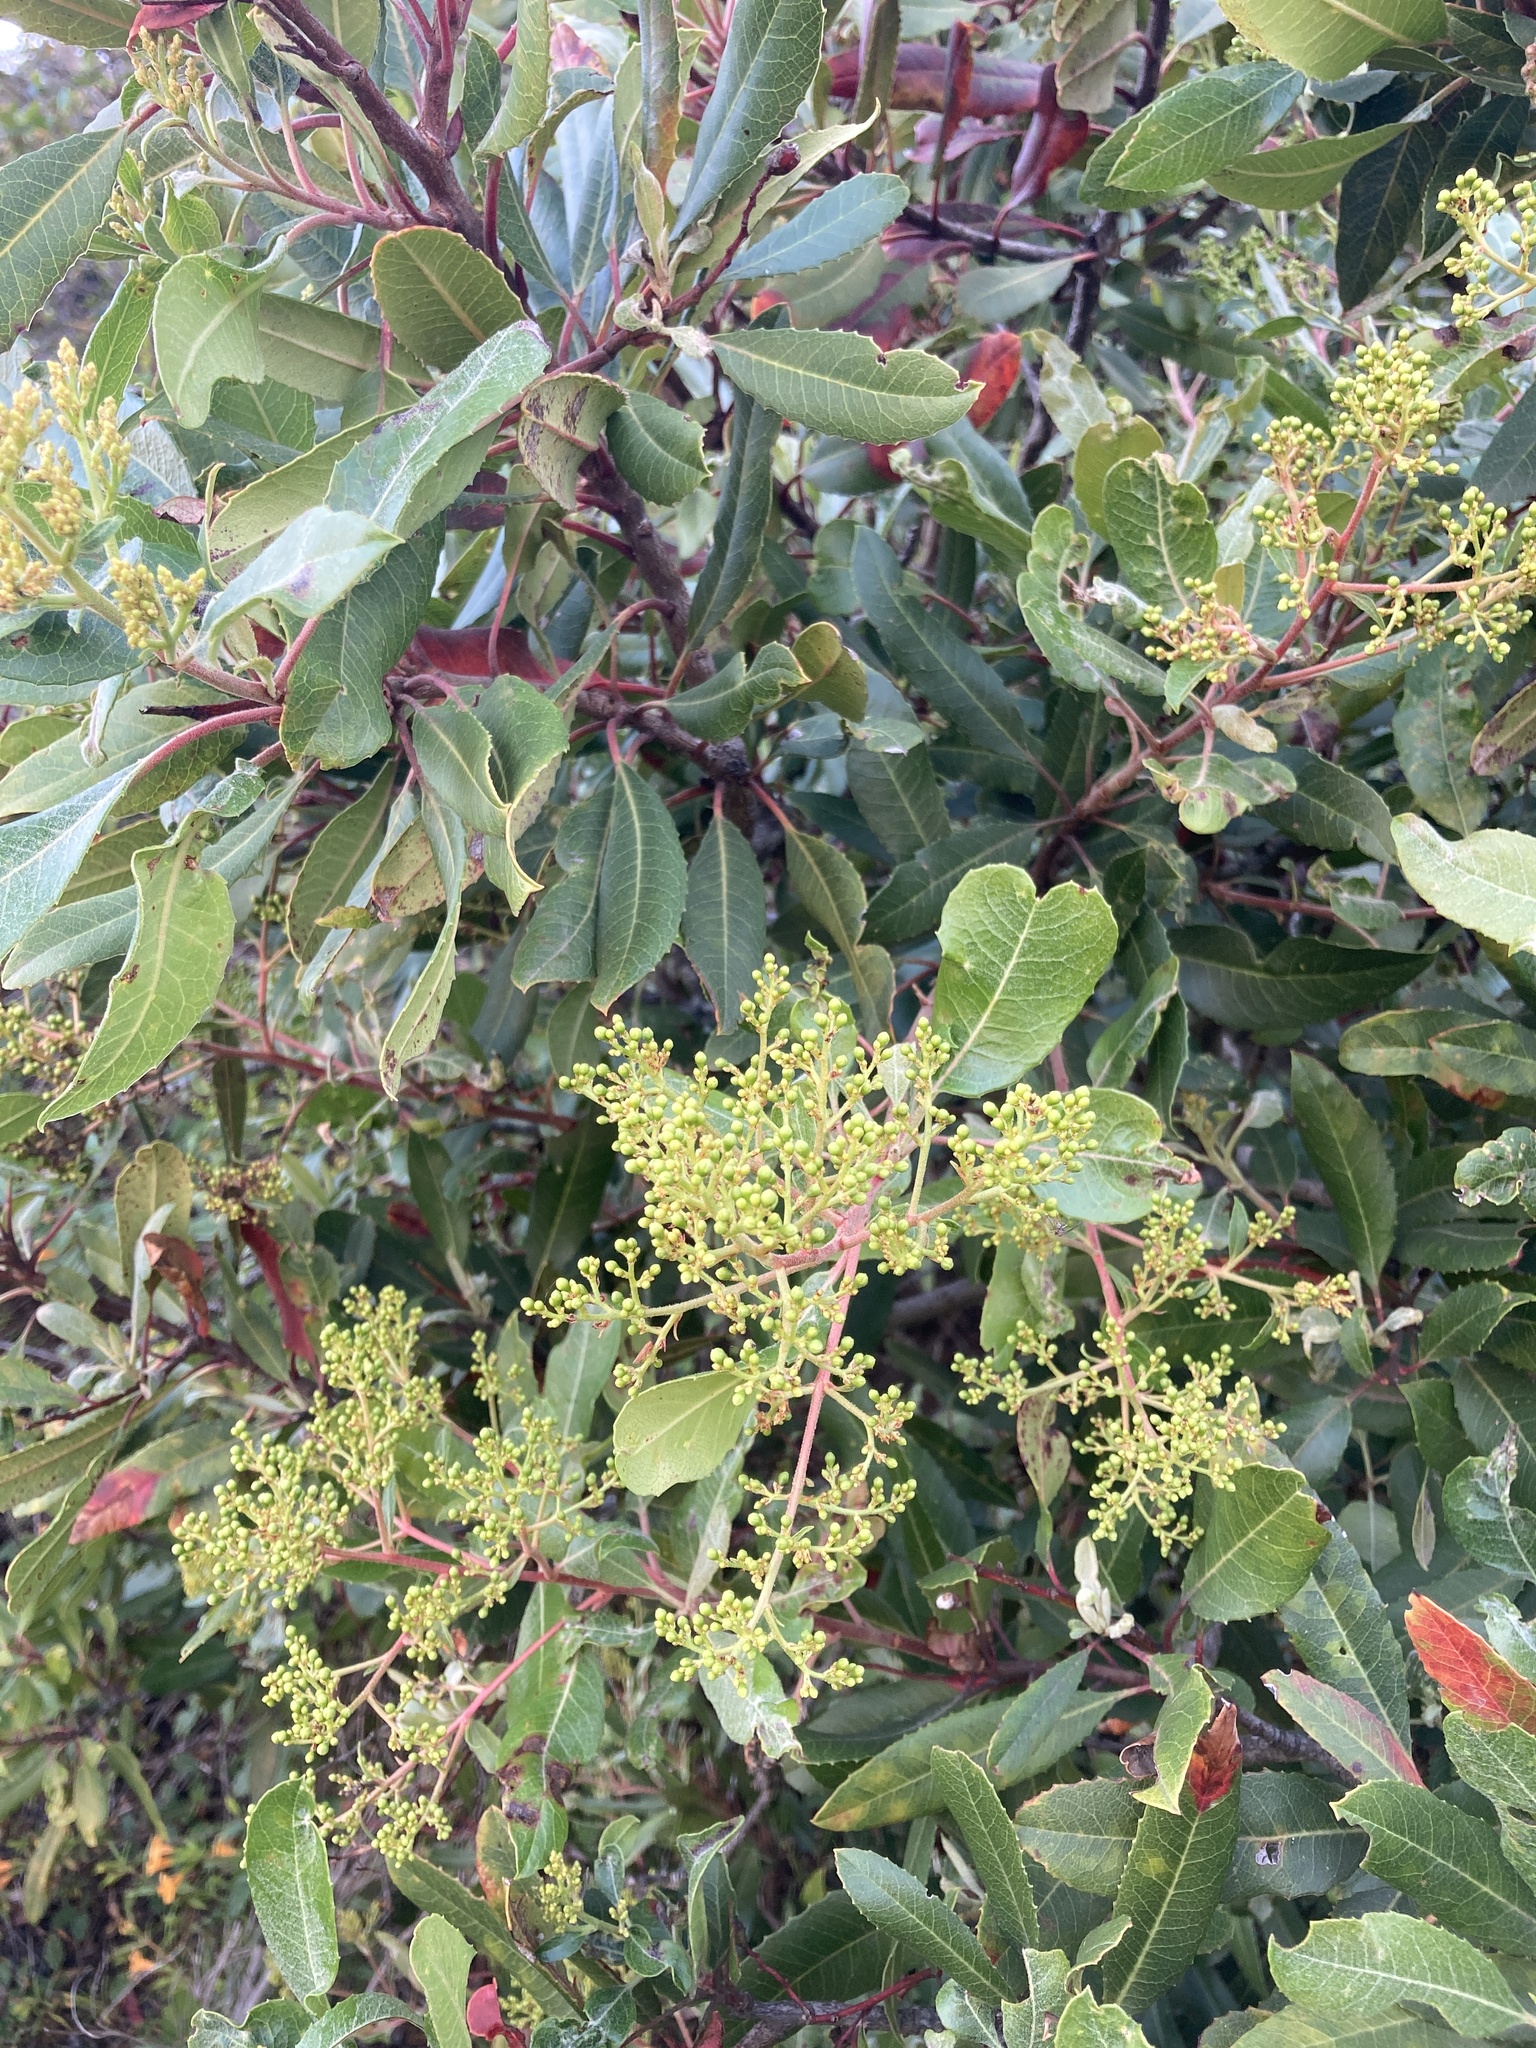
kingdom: Plantae
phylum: Tracheophyta
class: Magnoliopsida
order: Rosales
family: Rosaceae
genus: Heteromeles
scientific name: Heteromeles arbutifolia
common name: California-holly
